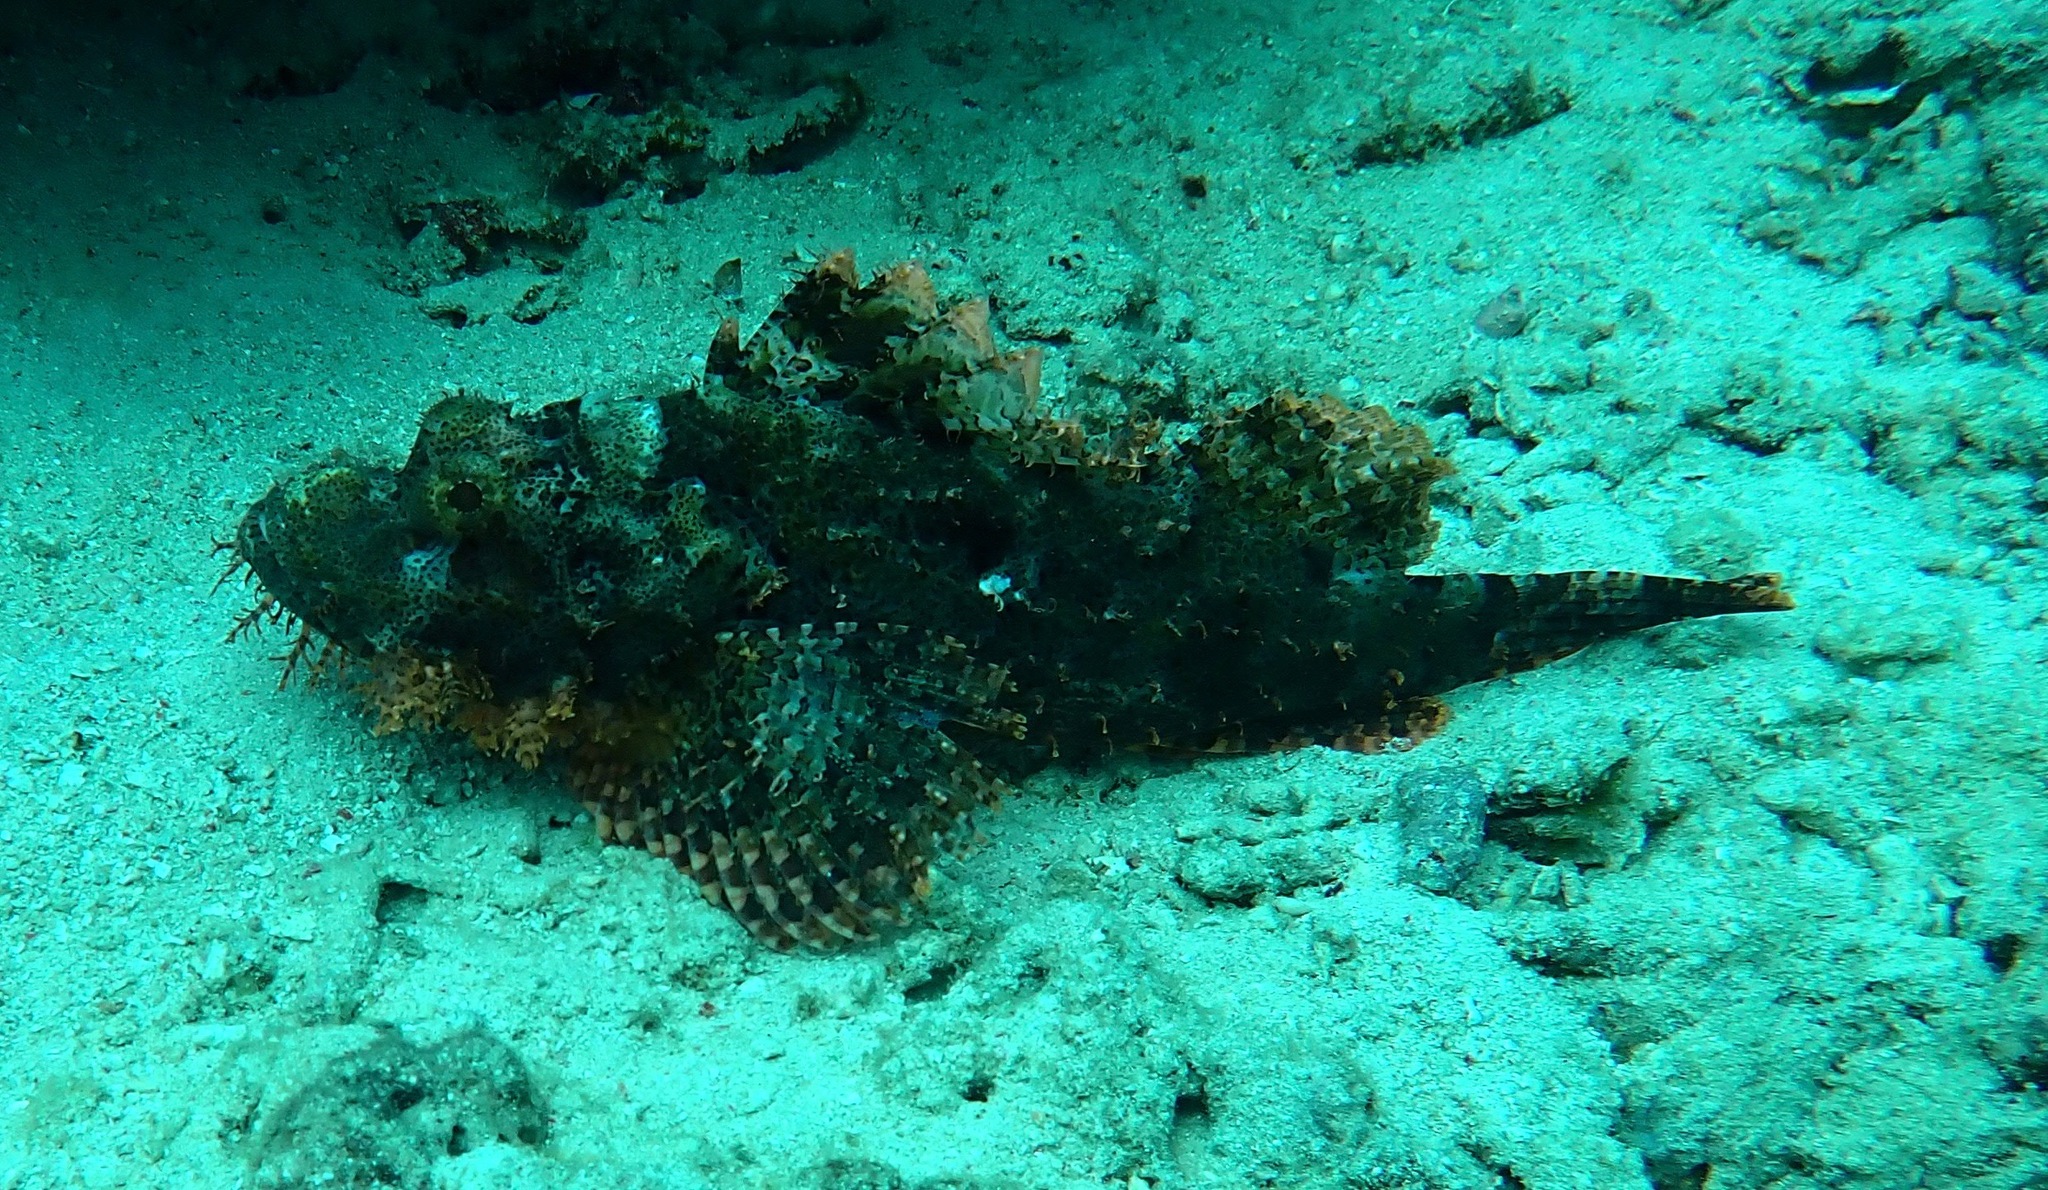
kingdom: Animalia
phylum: Chordata
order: Scorpaeniformes
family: Scorpaenidae
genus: Scorpaenopsis
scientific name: Scorpaenopsis oxycephala
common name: Smallscale scorpionfish
